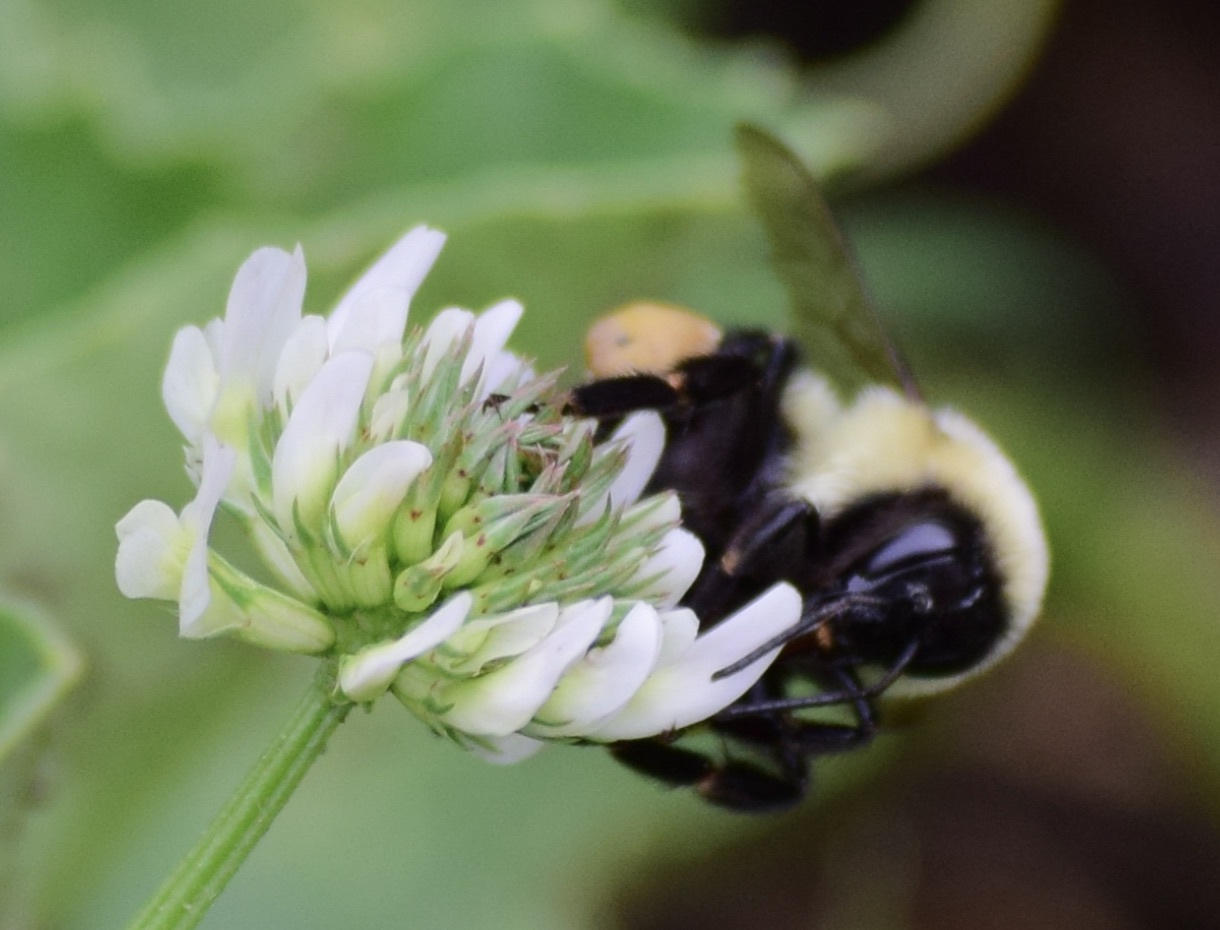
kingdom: Animalia
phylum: Arthropoda
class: Insecta
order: Hymenoptera
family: Apidae
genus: Bombus
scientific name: Bombus impatiens
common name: Common eastern bumble bee
